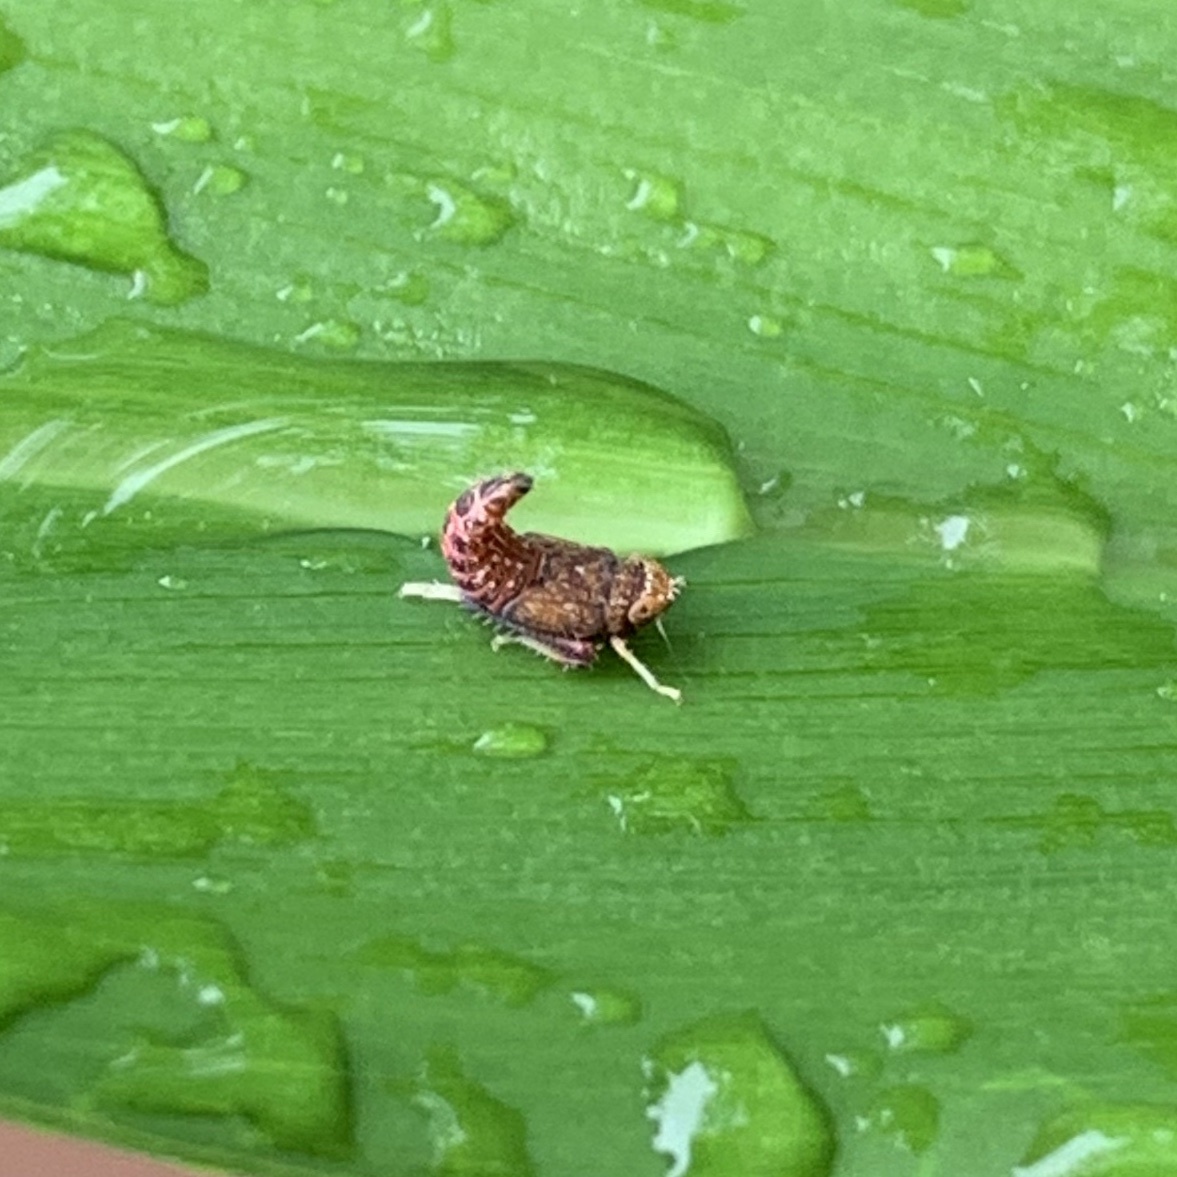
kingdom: Animalia
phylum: Arthropoda
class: Insecta
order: Hemiptera
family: Cicadellidae
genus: Orientus
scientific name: Orientus ishidae
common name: Japanese leafhopper
